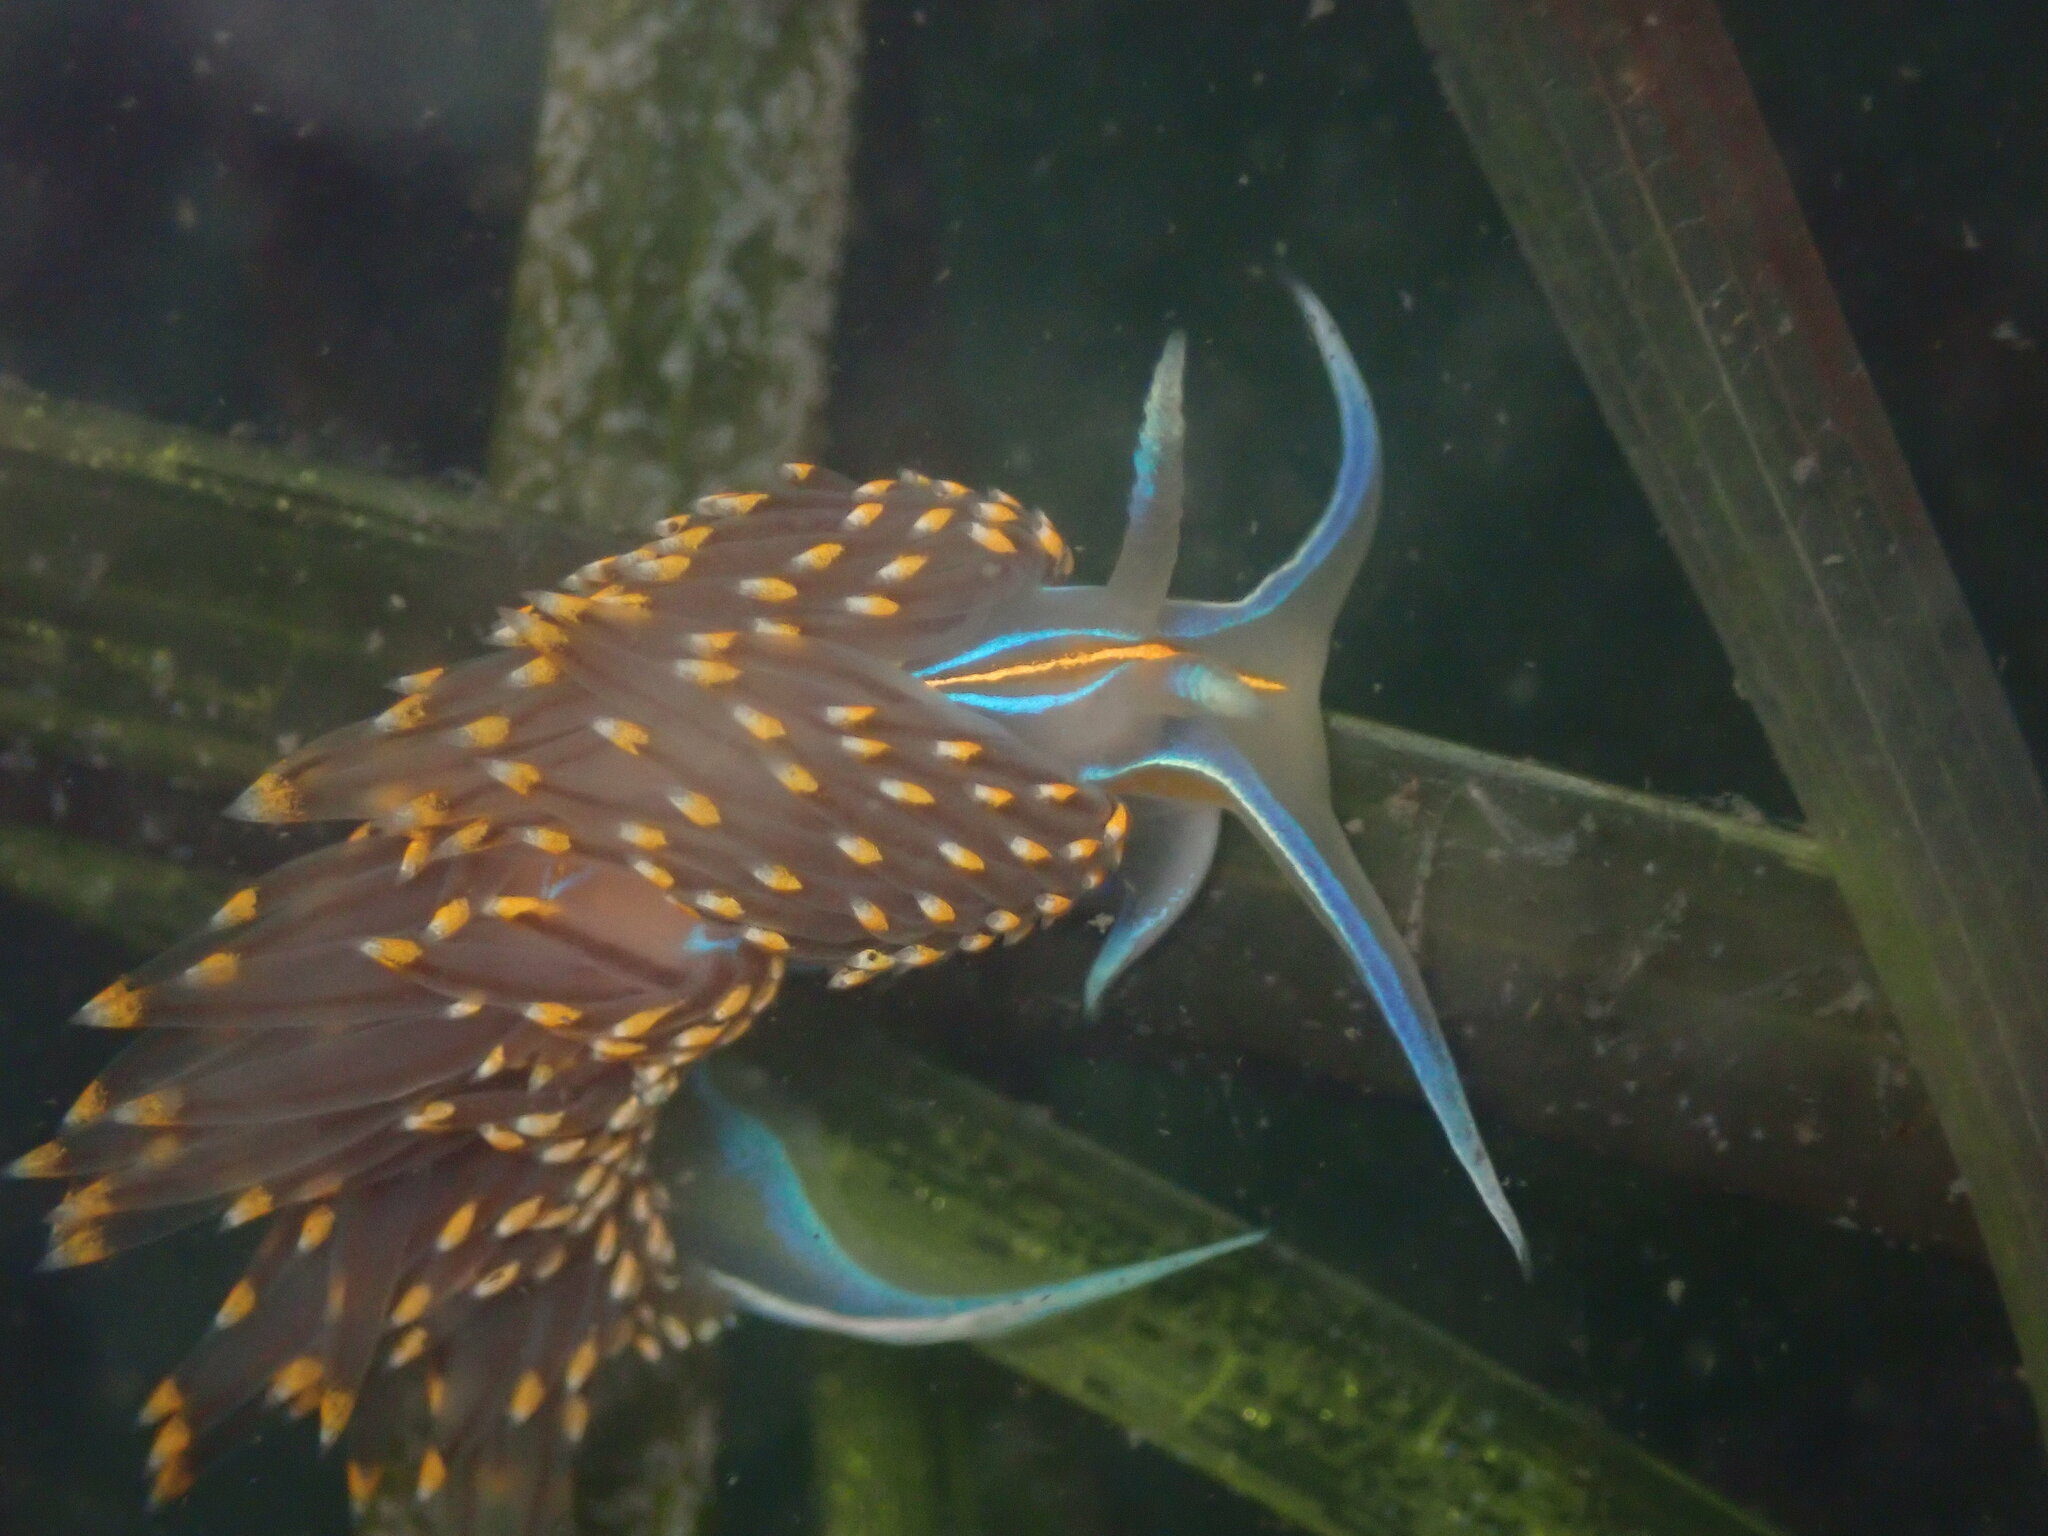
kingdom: Animalia
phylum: Mollusca
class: Gastropoda
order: Nudibranchia
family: Myrrhinidae
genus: Hermissenda
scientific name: Hermissenda opalescens
